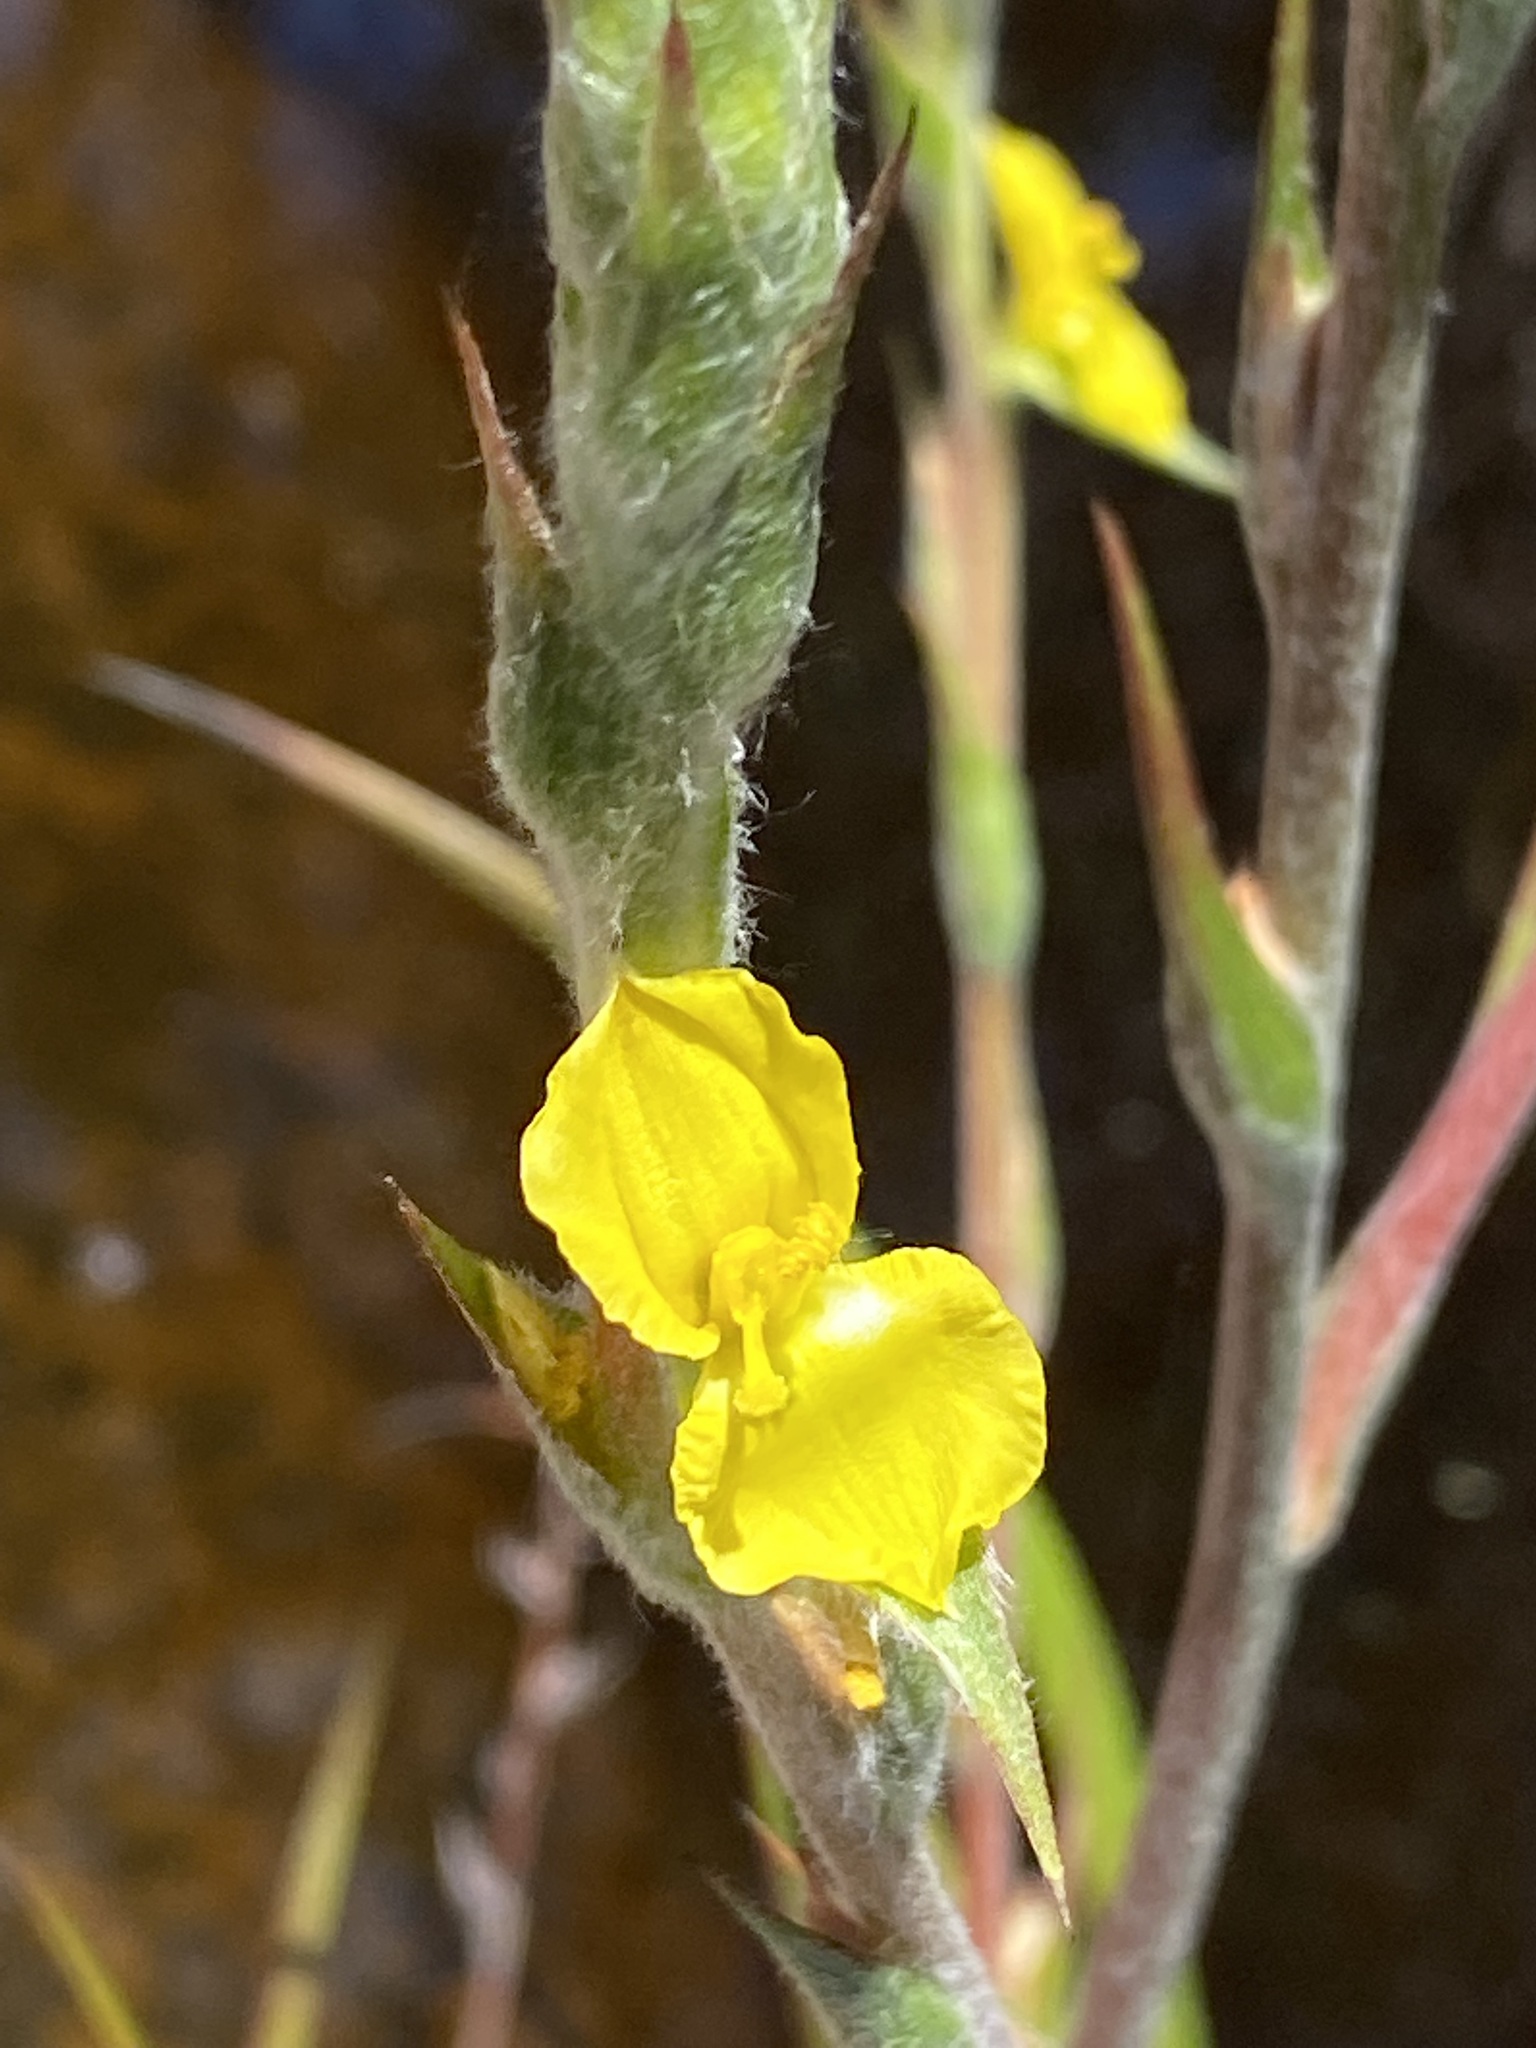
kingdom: Plantae
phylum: Tracheophyta
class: Liliopsida
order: Commelinales
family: Philydraceae
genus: Philydrum
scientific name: Philydrum lanuginosum
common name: Woolly frog's mouth
